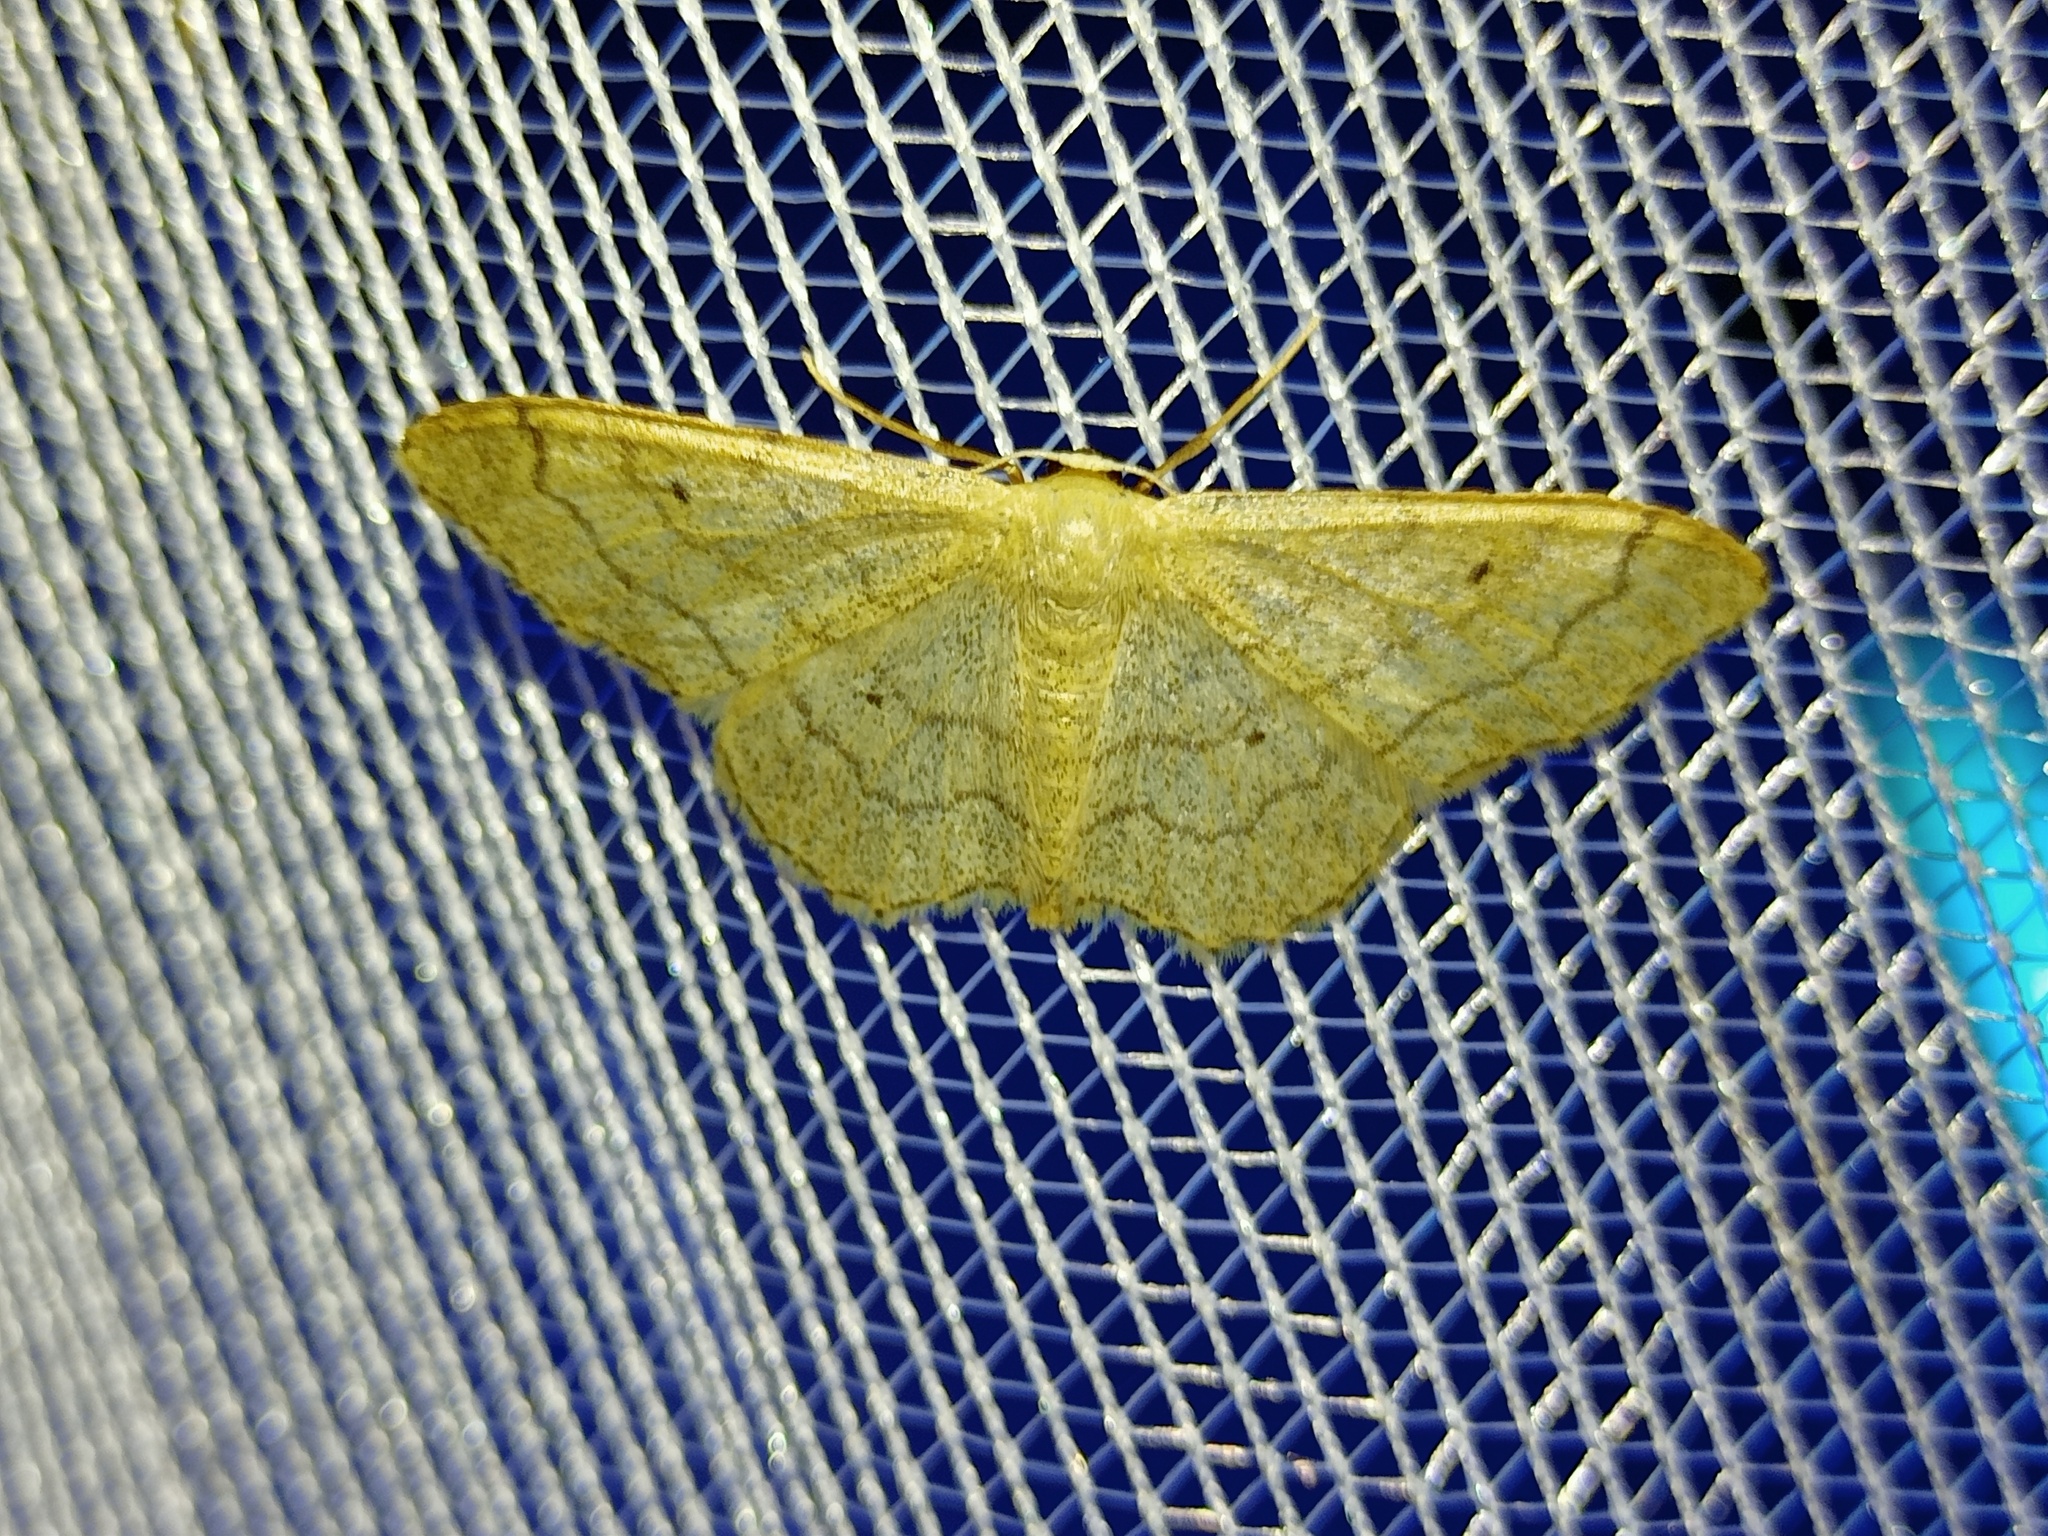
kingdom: Animalia
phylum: Arthropoda
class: Insecta
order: Lepidoptera
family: Geometridae
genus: Idaea
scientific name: Idaea aversata
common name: Riband wave
